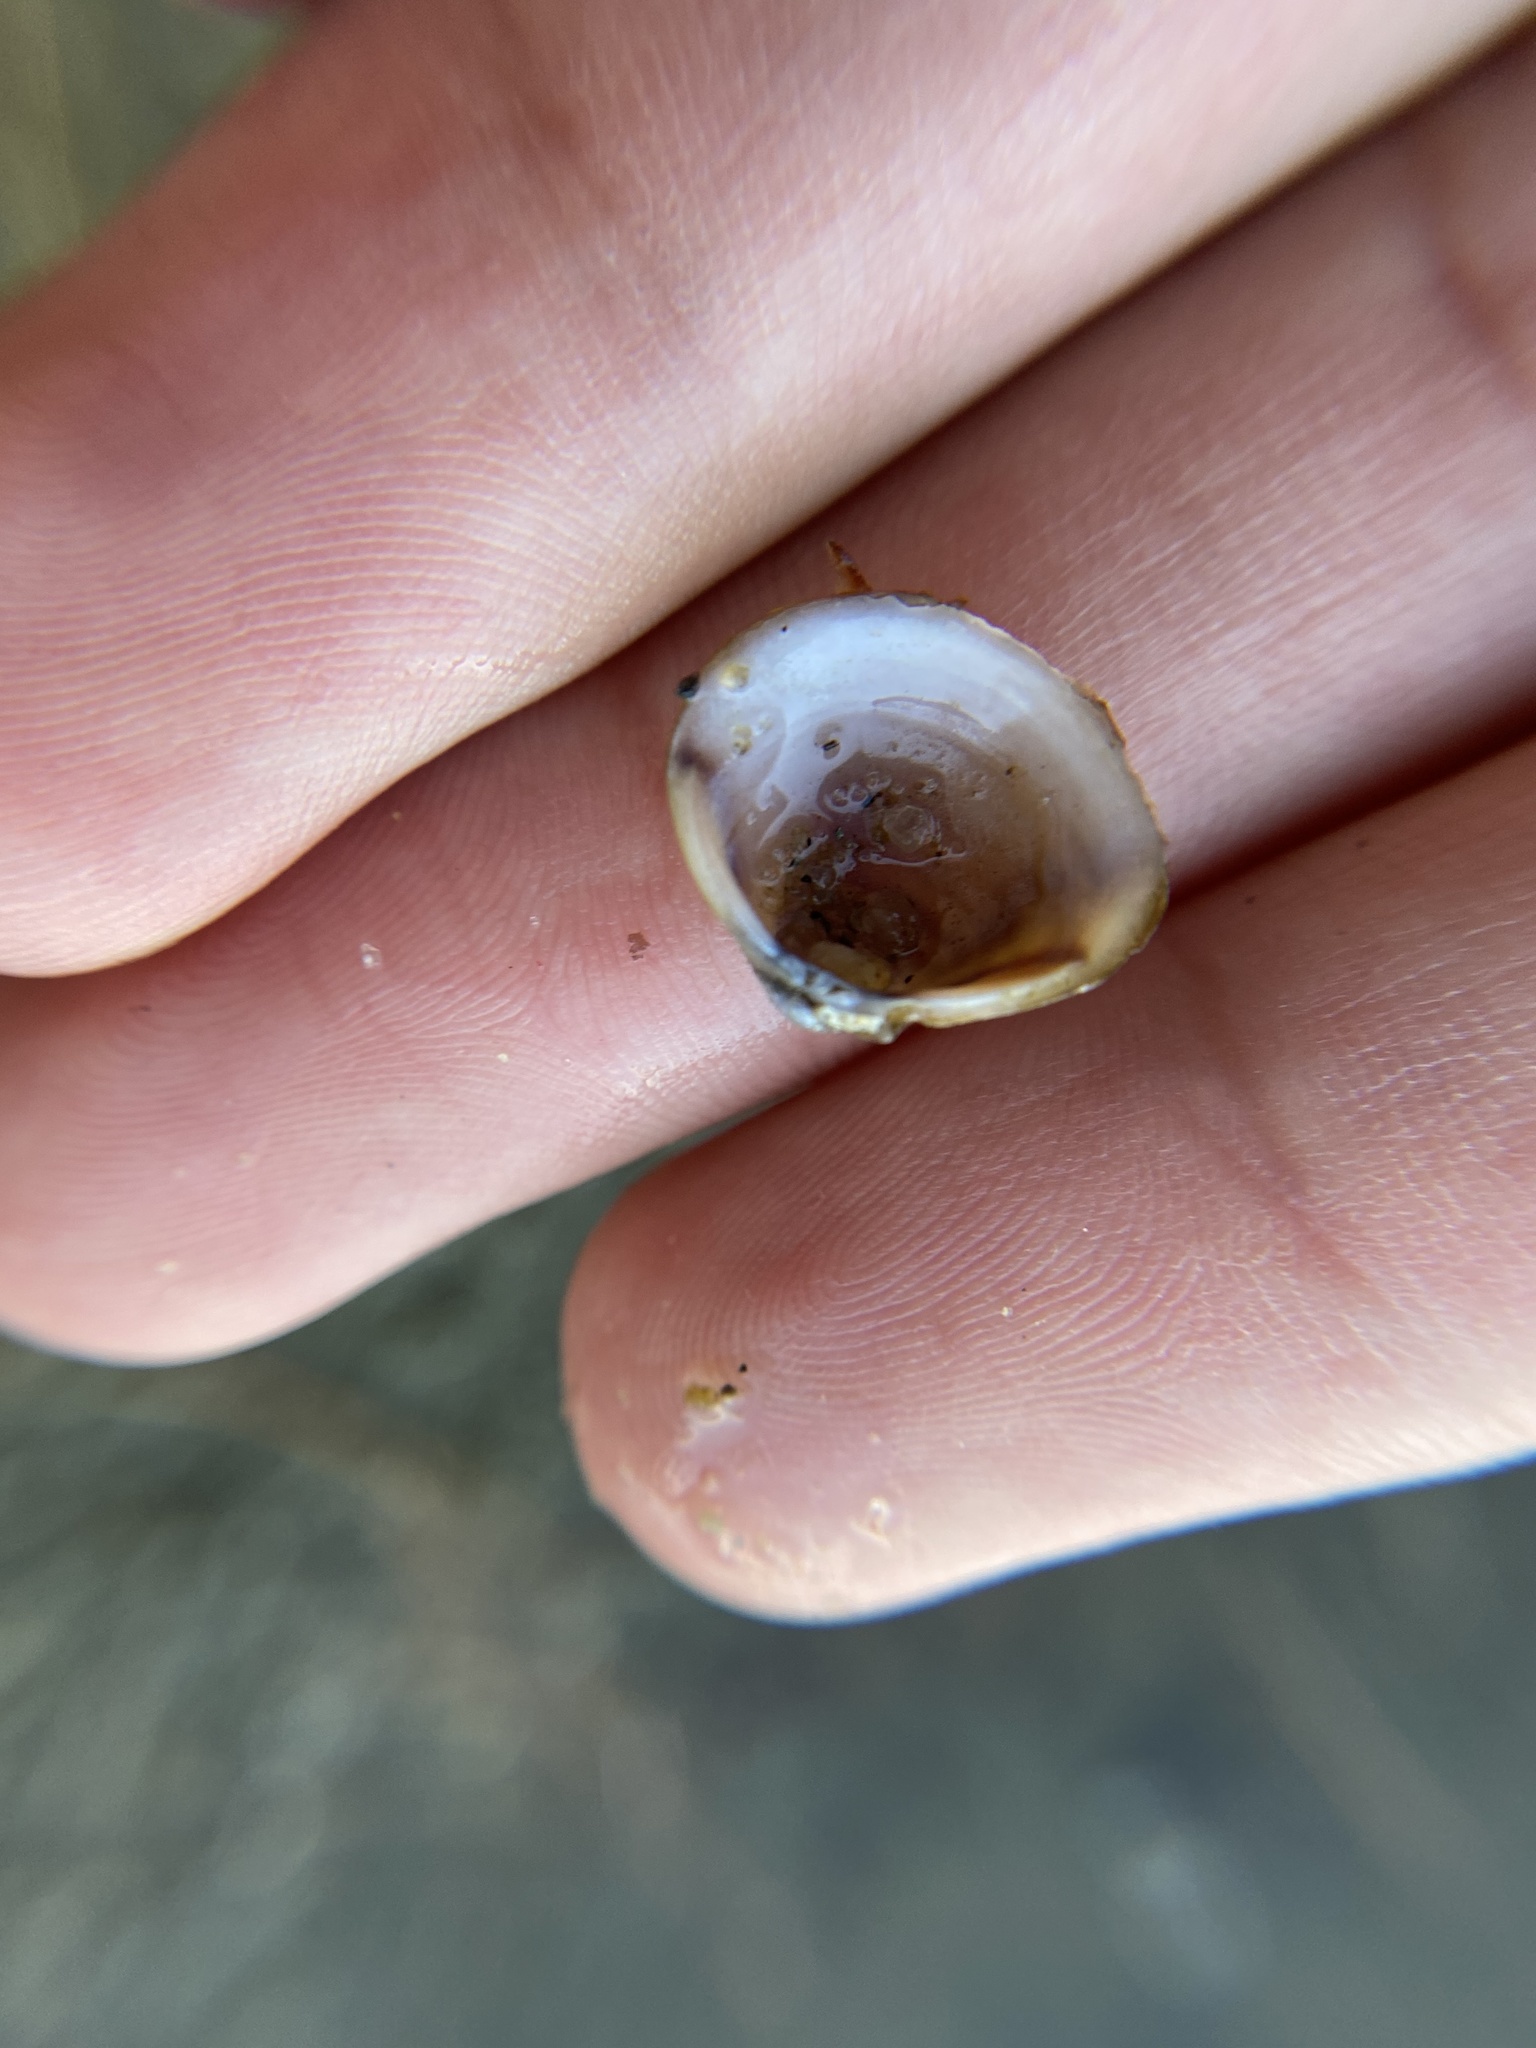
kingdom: Animalia
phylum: Mollusca
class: Bivalvia
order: Venerida
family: Cyrenidae
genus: Corbicula
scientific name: Corbicula fluminea
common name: Asian clam
